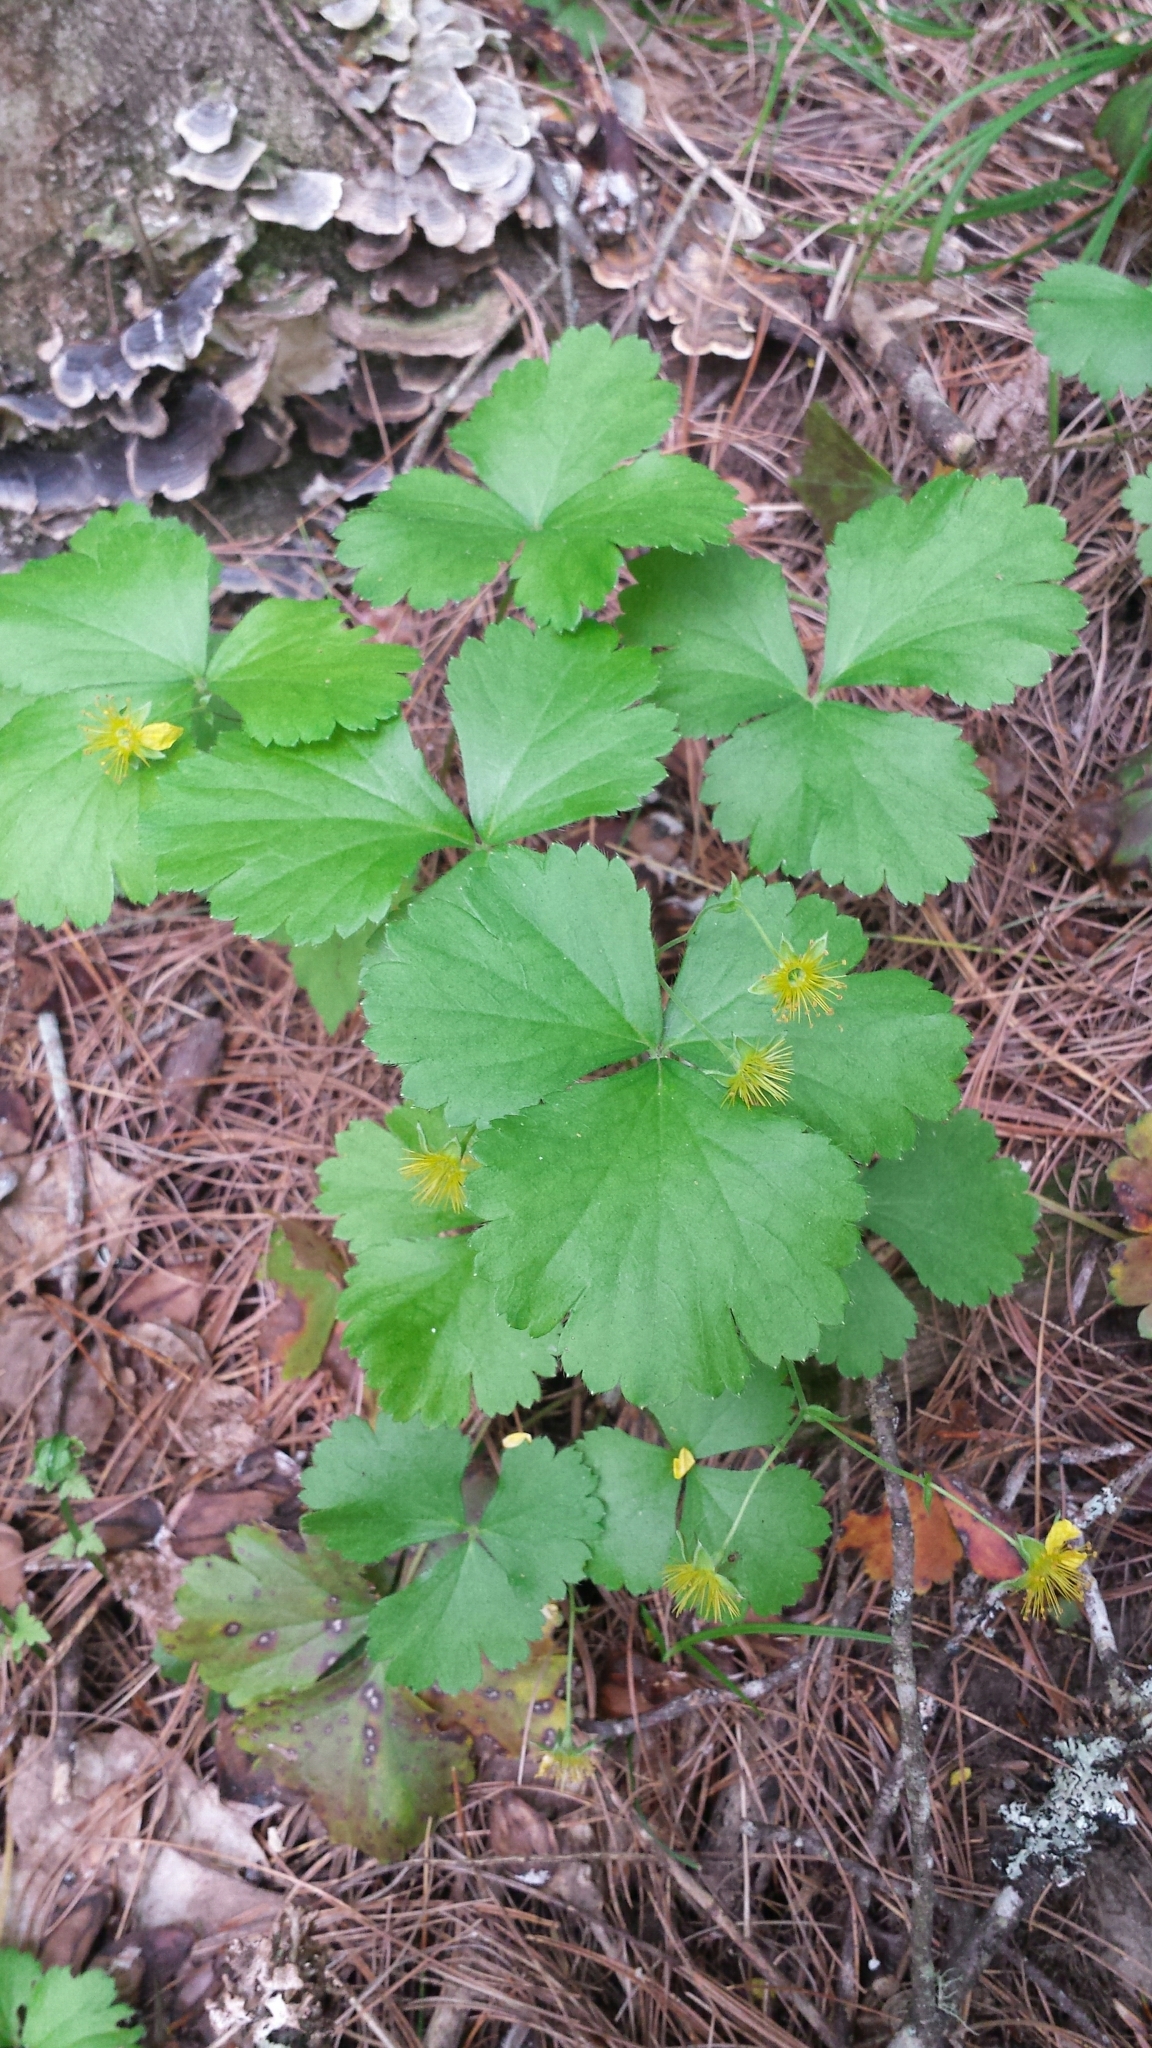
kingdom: Plantae
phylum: Tracheophyta
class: Magnoliopsida
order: Rosales
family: Rosaceae
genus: Geum
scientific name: Geum fragarioides
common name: Appalachian barren strawberry
